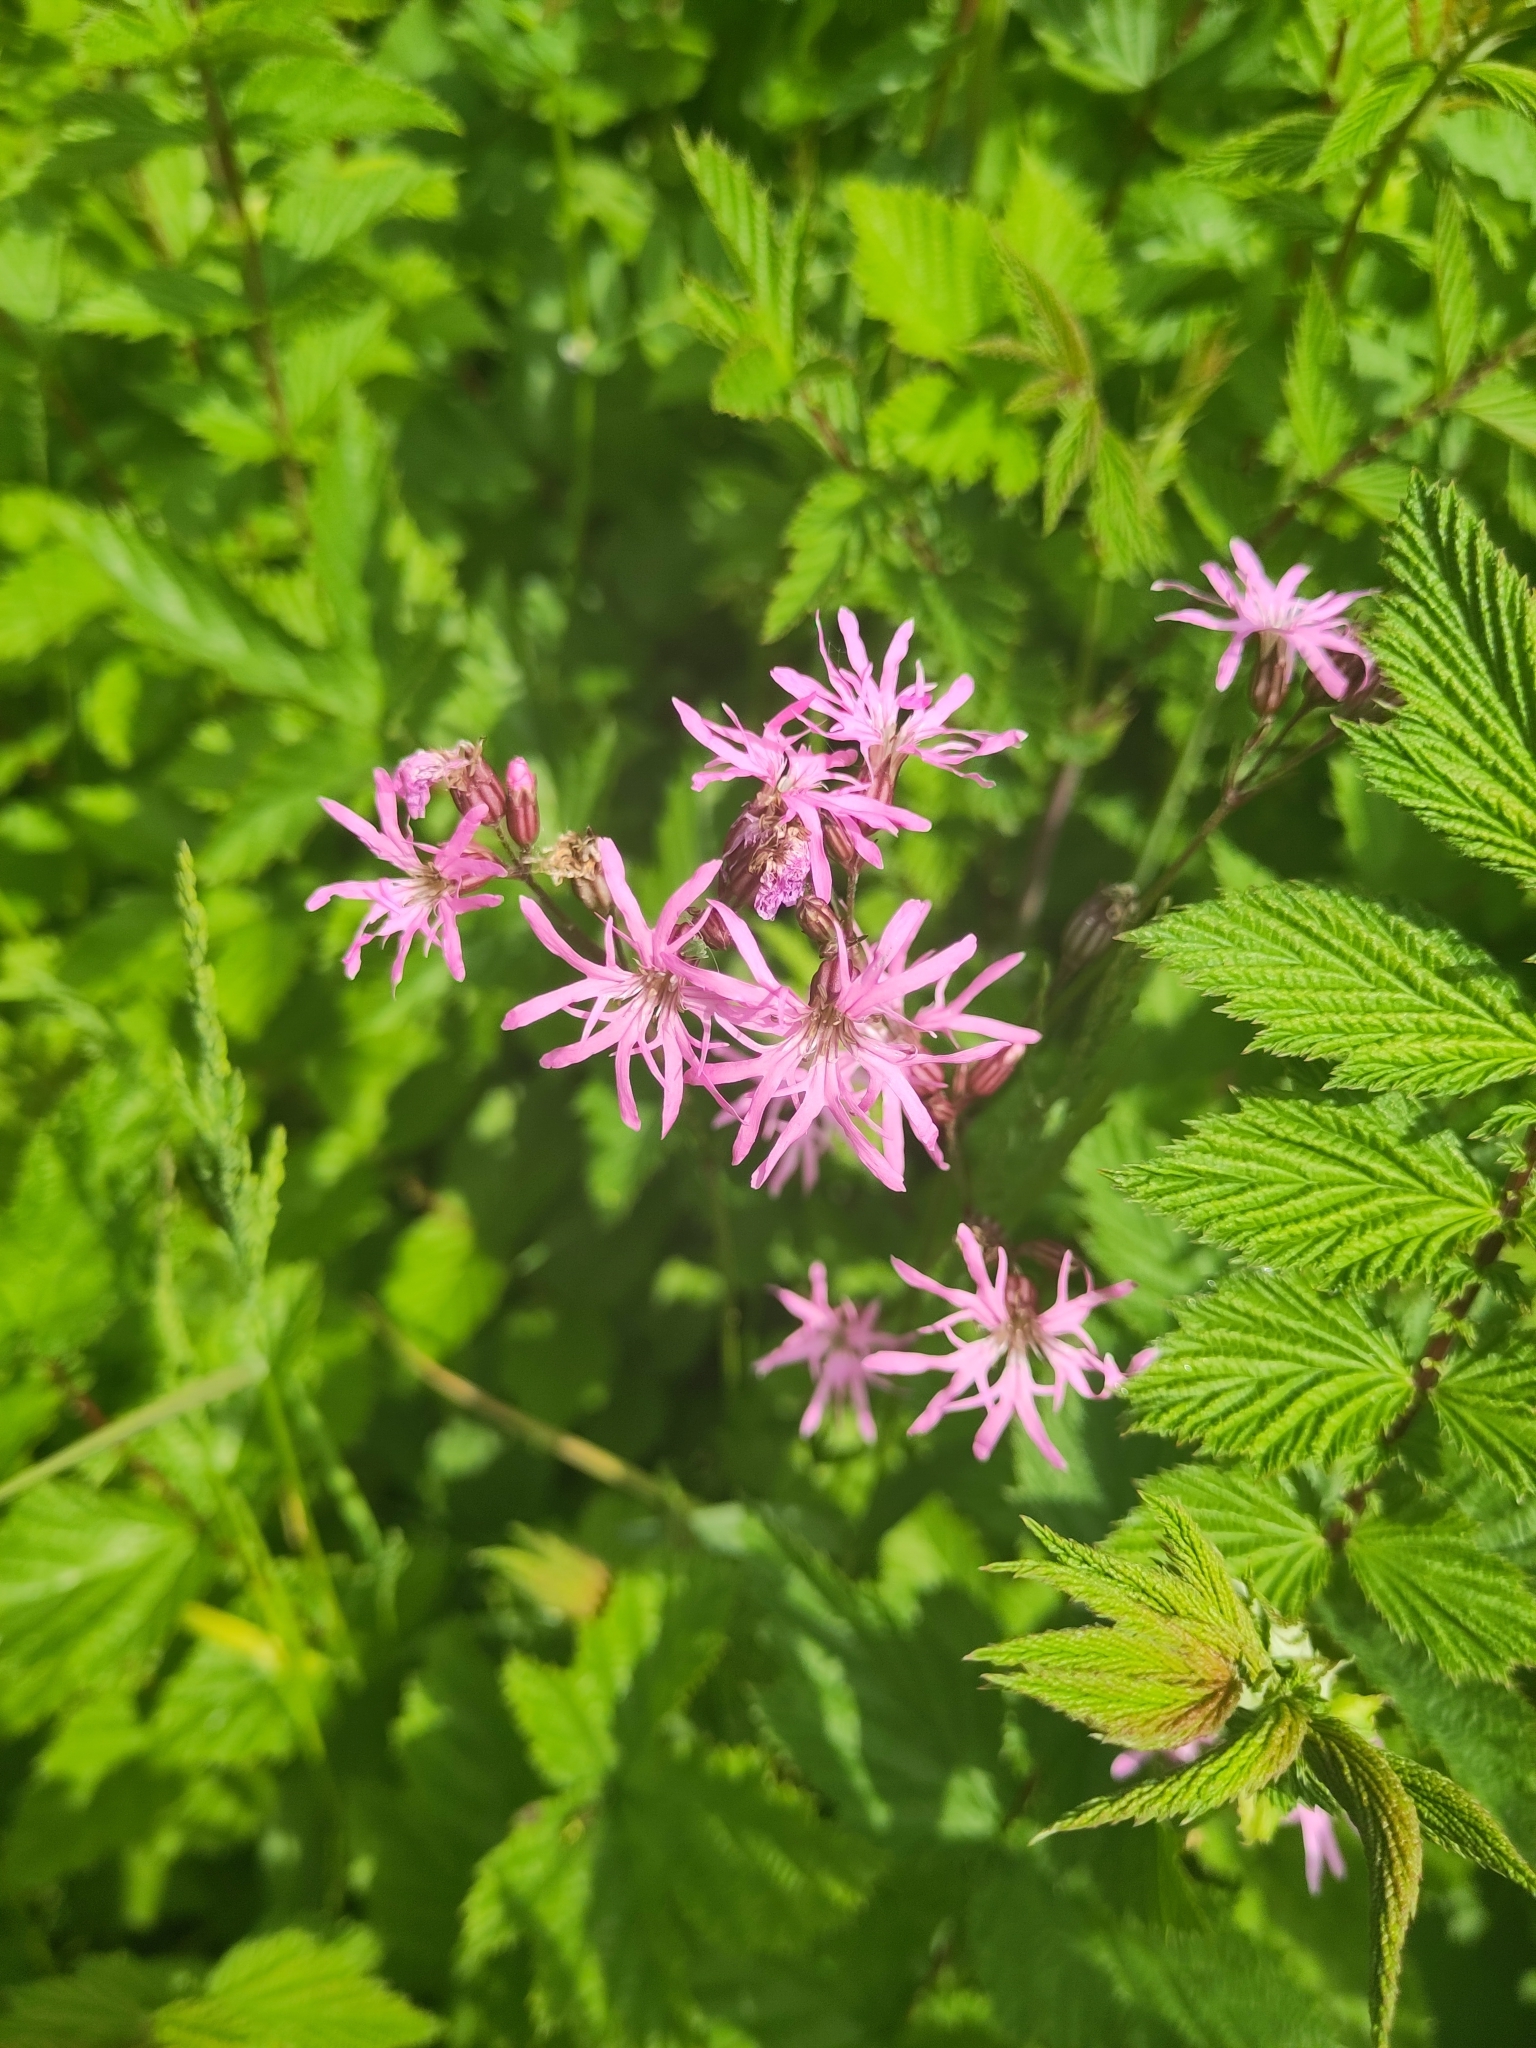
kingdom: Plantae
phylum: Tracheophyta
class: Magnoliopsida
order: Caryophyllales
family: Caryophyllaceae
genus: Silene
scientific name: Silene flos-cuculi
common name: Ragged-robin
